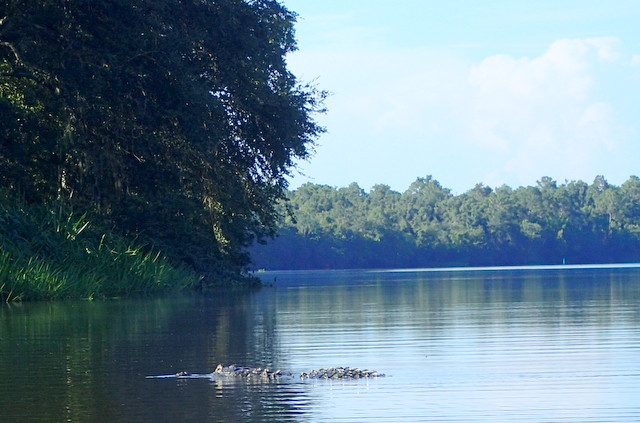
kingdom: Animalia
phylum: Chordata
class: Crocodylia
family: Alligatoridae
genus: Alligator
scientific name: Alligator mississippiensis
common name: American alligator
